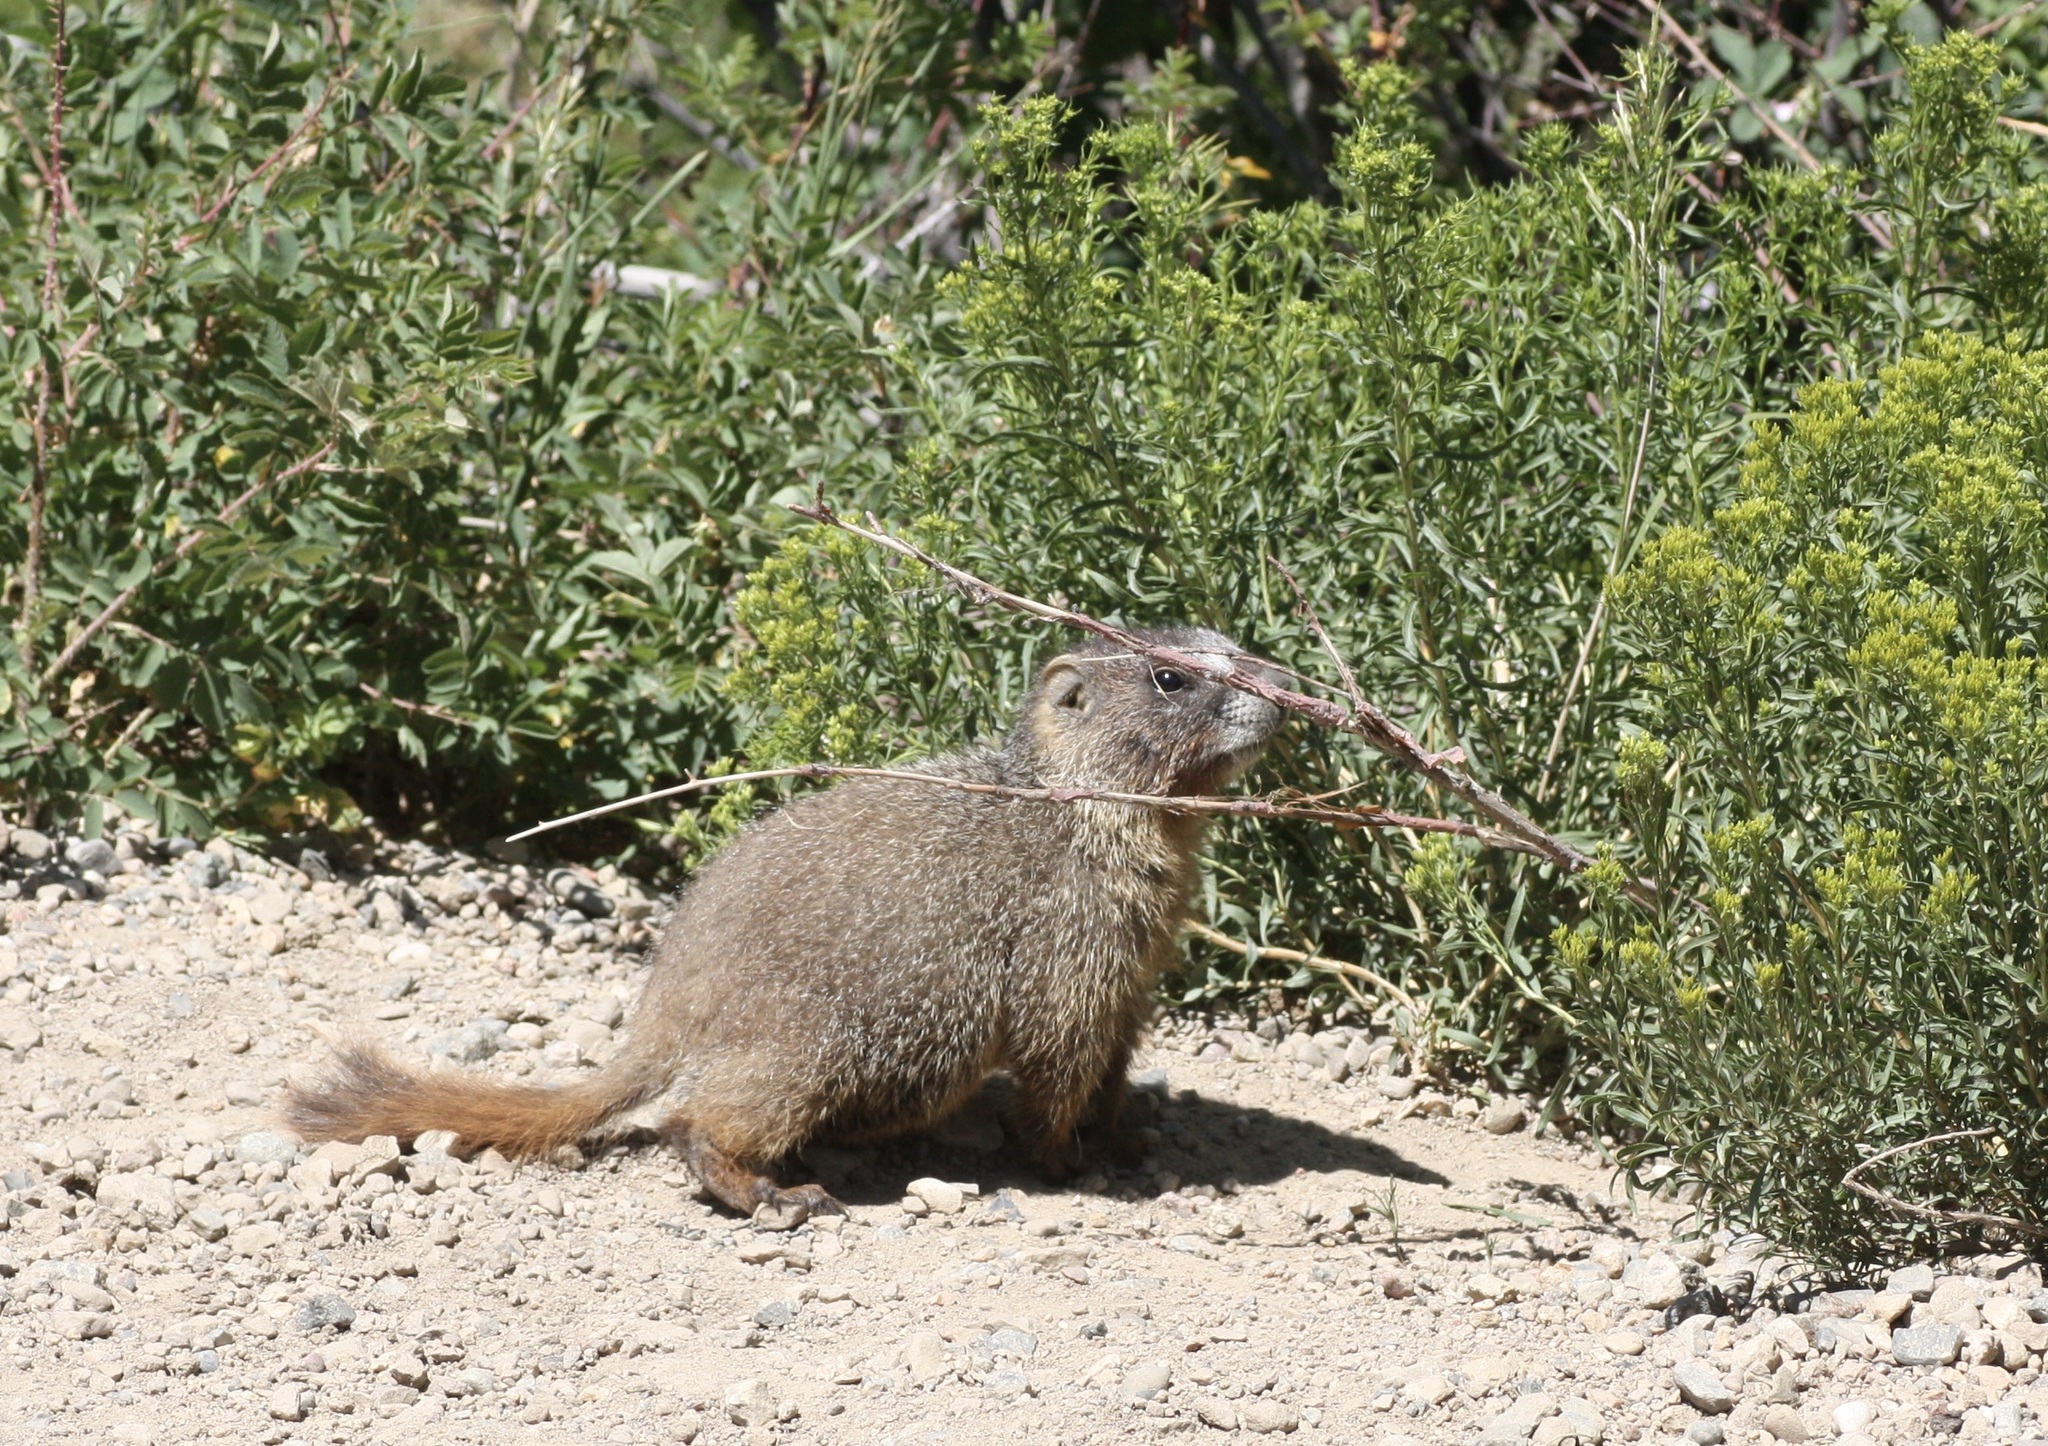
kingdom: Animalia
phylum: Chordata
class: Mammalia
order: Rodentia
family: Sciuridae
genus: Marmota
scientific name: Marmota flaviventris
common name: Yellow-bellied marmot
